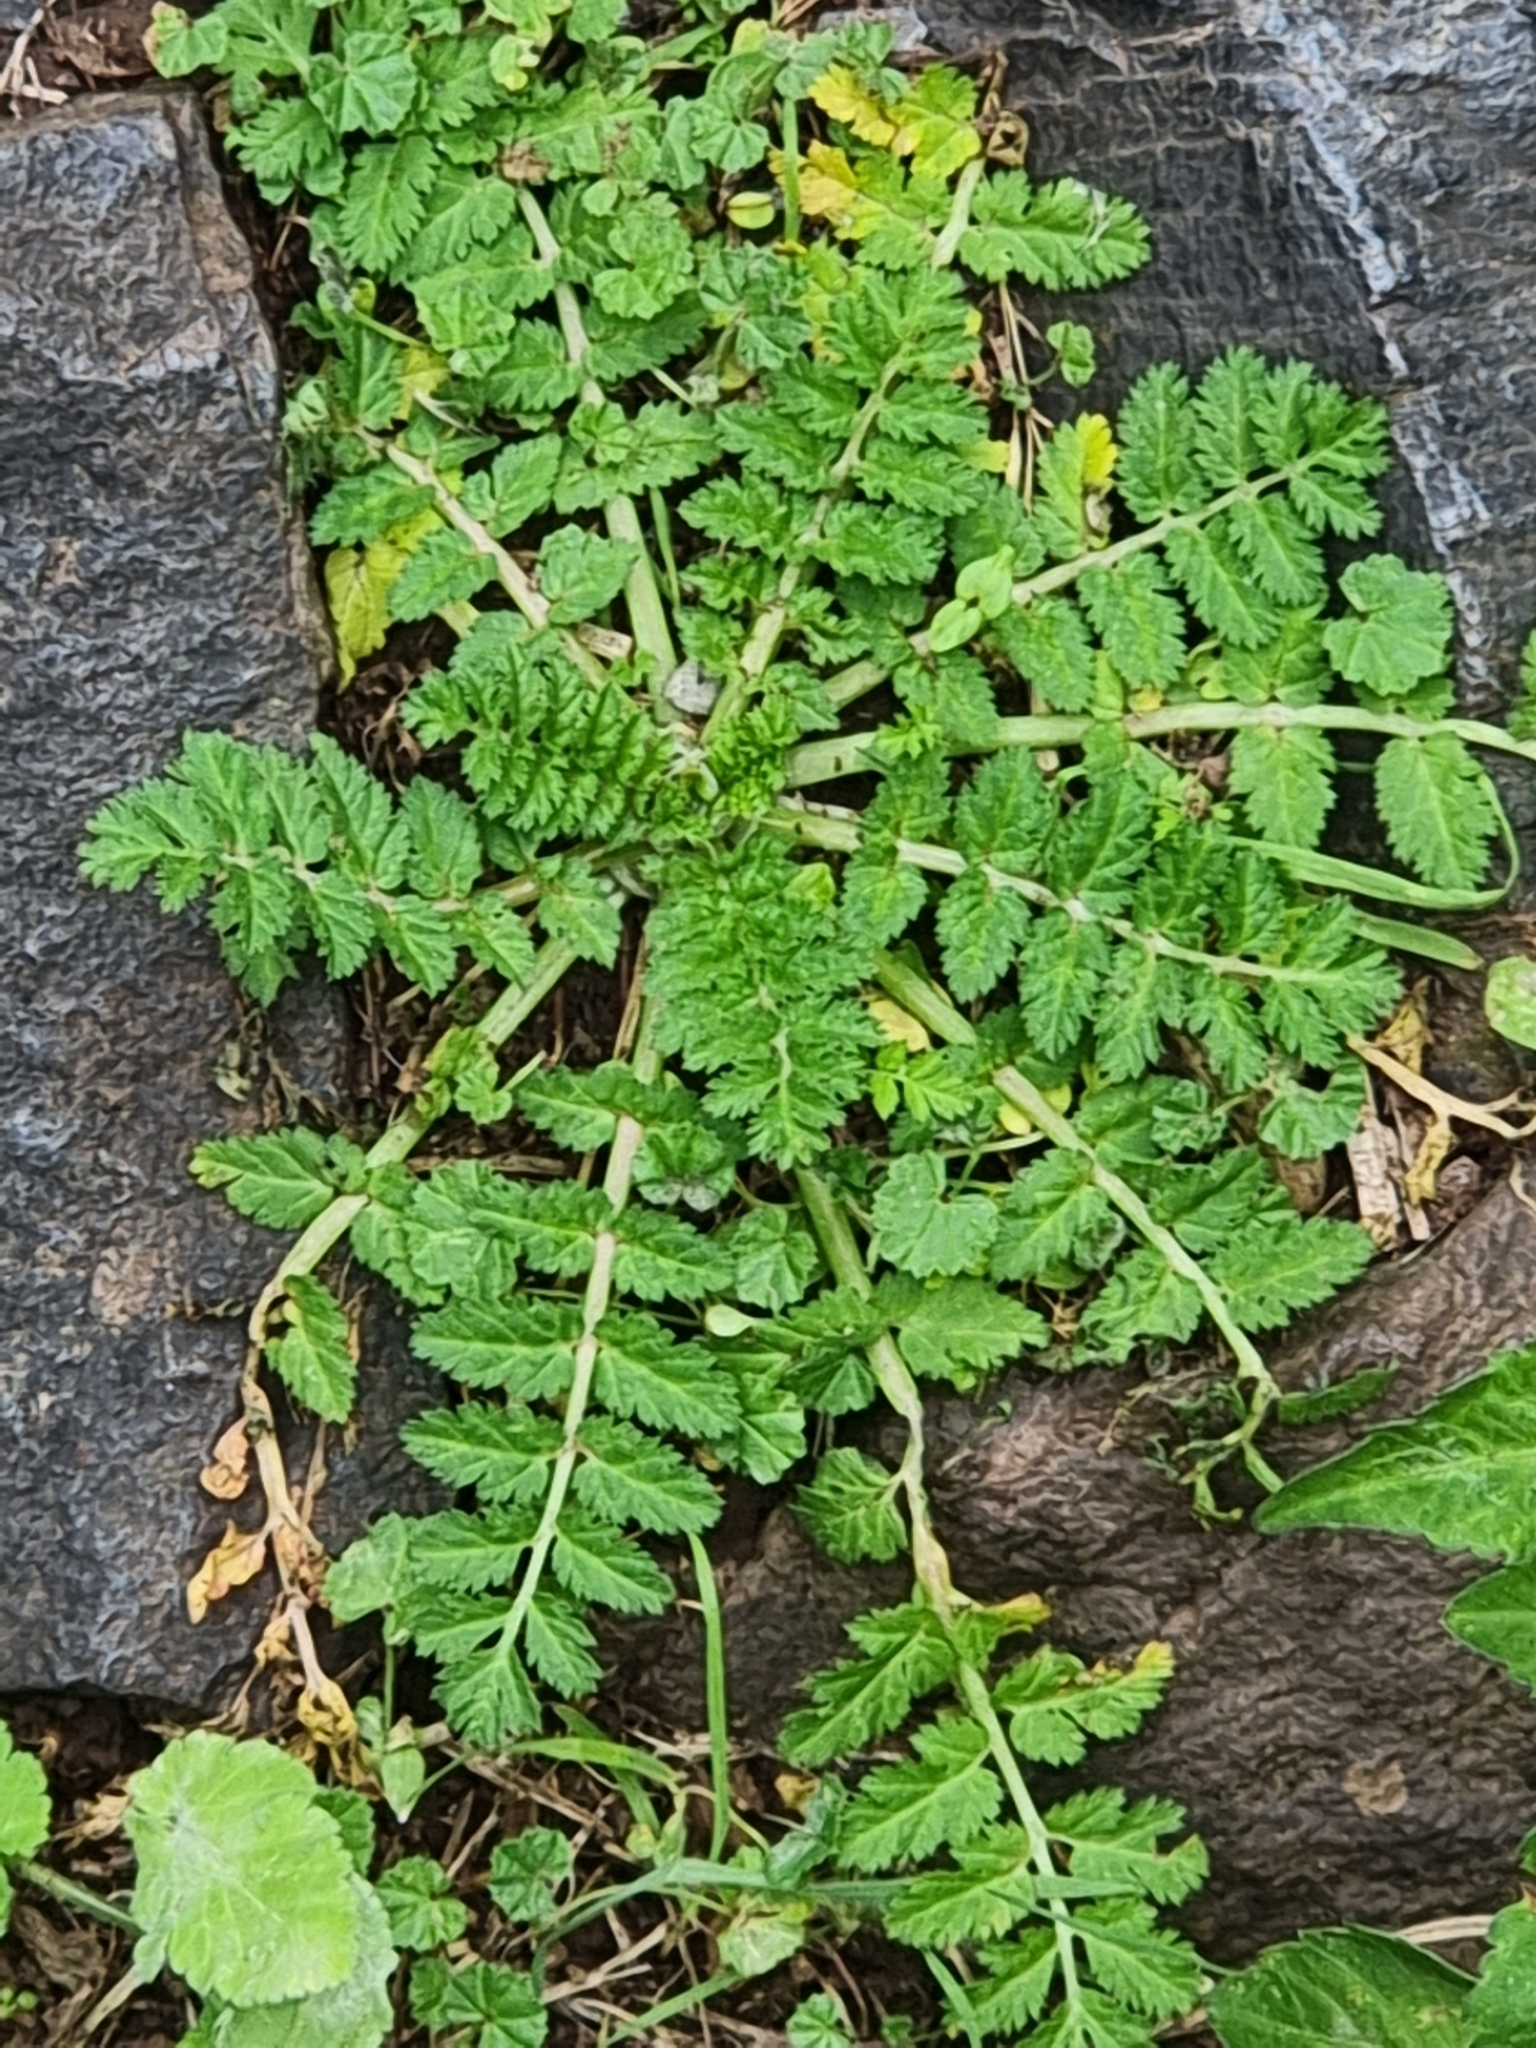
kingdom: Plantae
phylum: Tracheophyta
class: Magnoliopsida
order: Geraniales
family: Geraniaceae
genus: Erodium
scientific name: Erodium cicutarium
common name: Common stork's-bill
